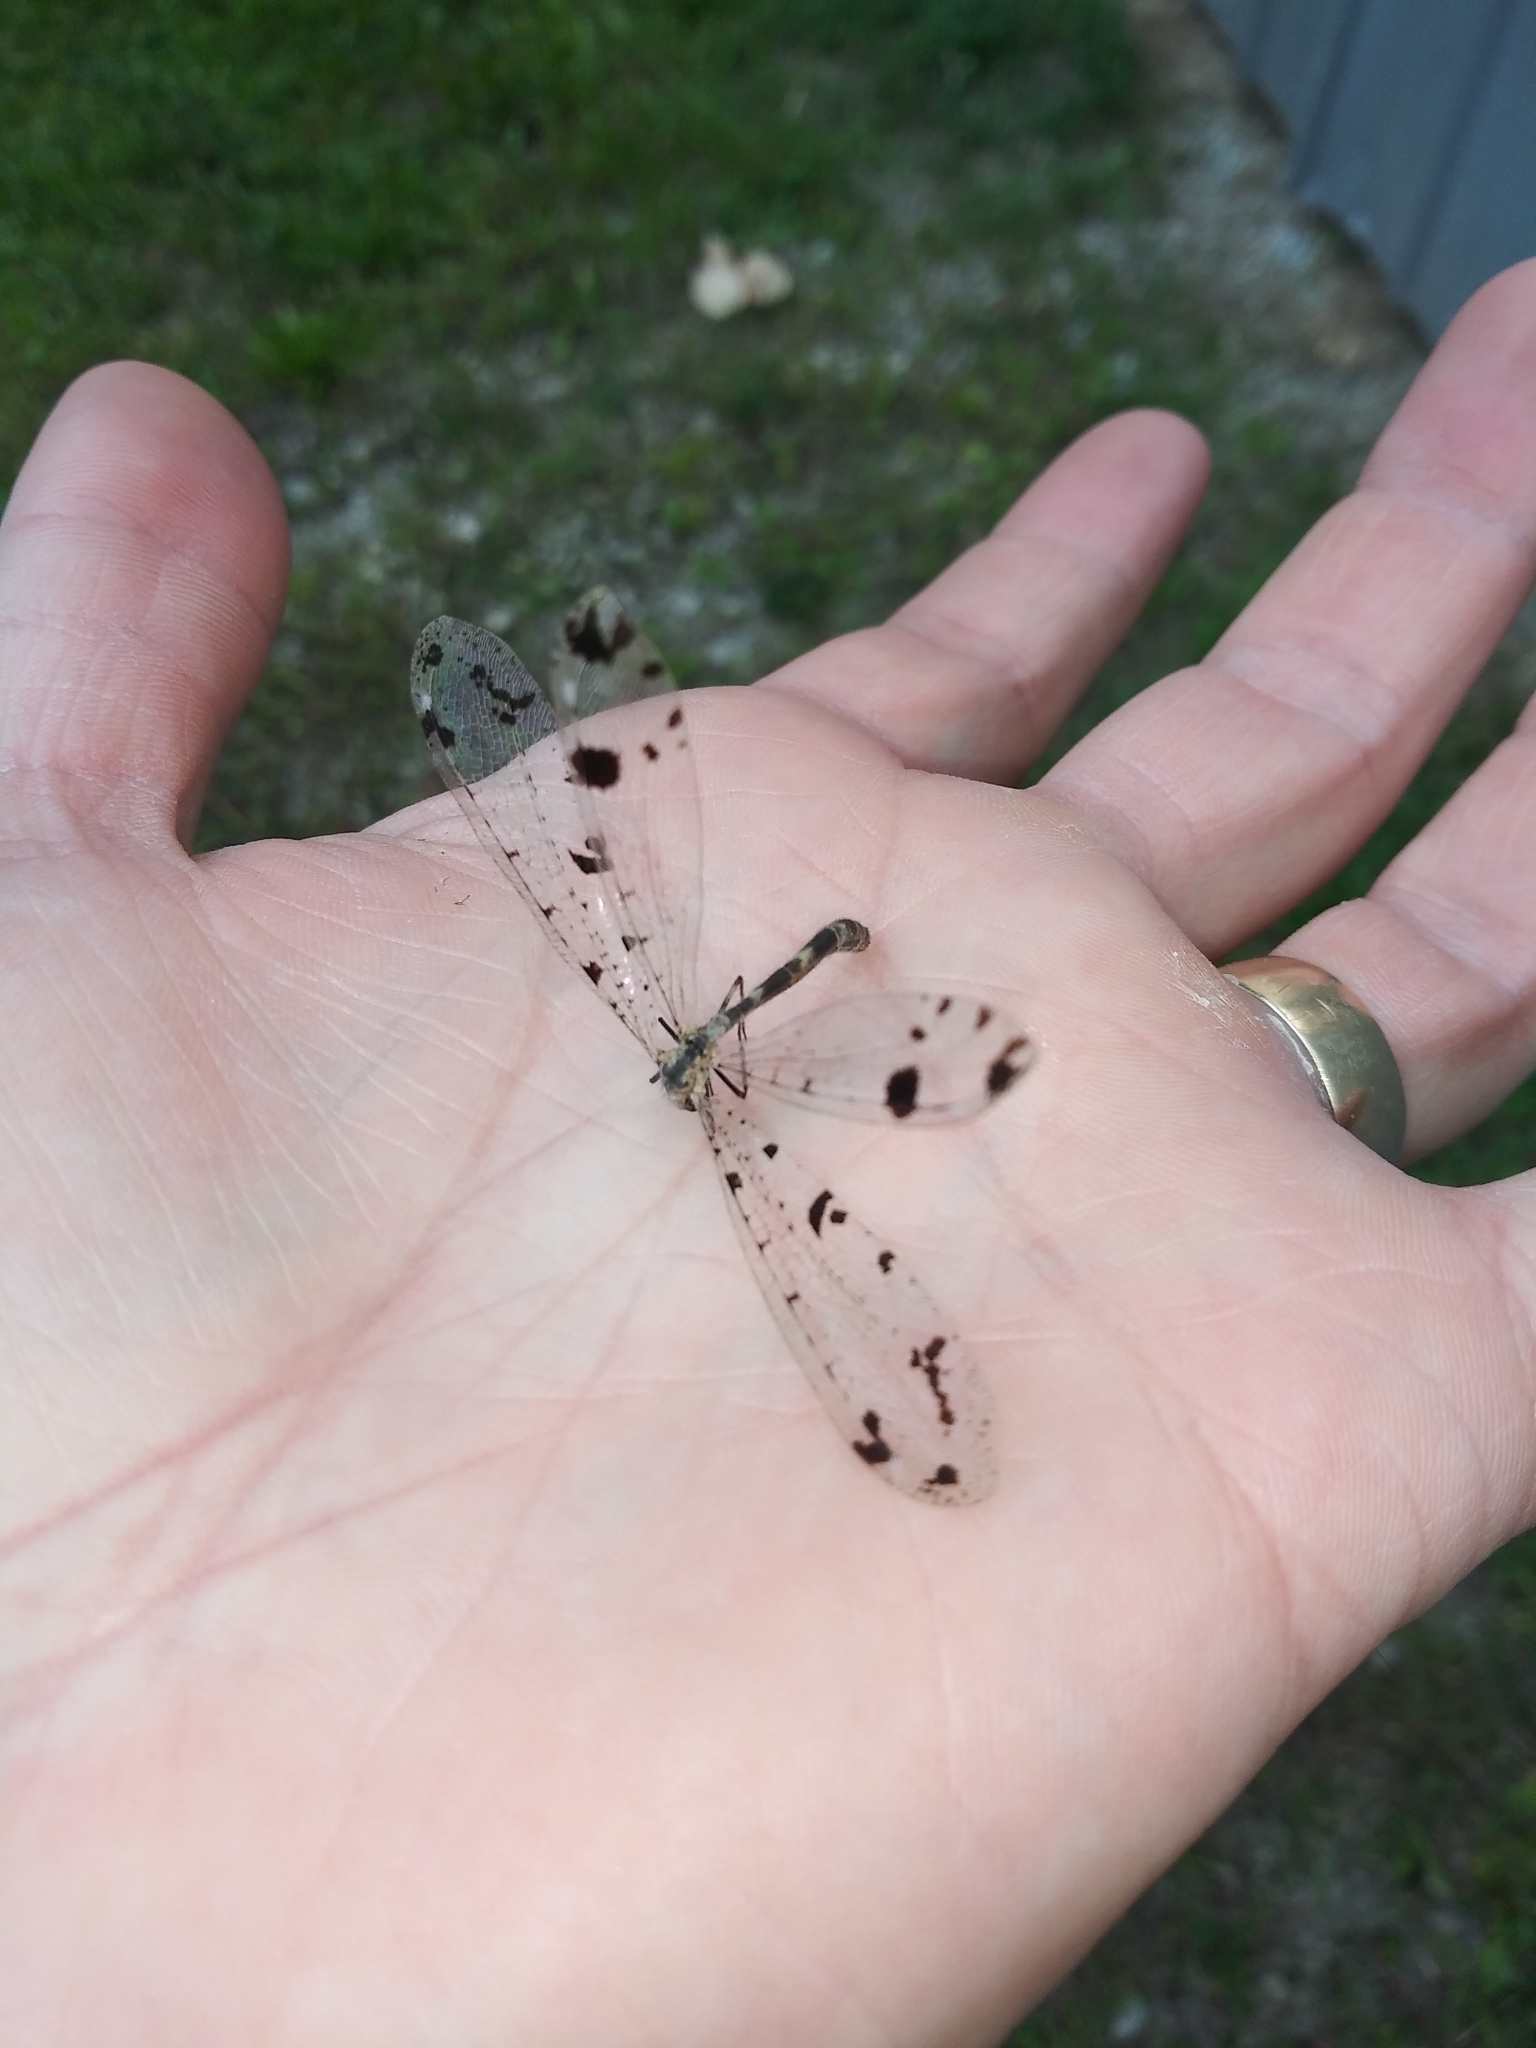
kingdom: Animalia
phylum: Arthropoda
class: Insecta
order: Neuroptera
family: Myrmeleontidae
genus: Dendroleon
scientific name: Dendroleon obsoletus
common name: Eastern spotted-winged antlion
